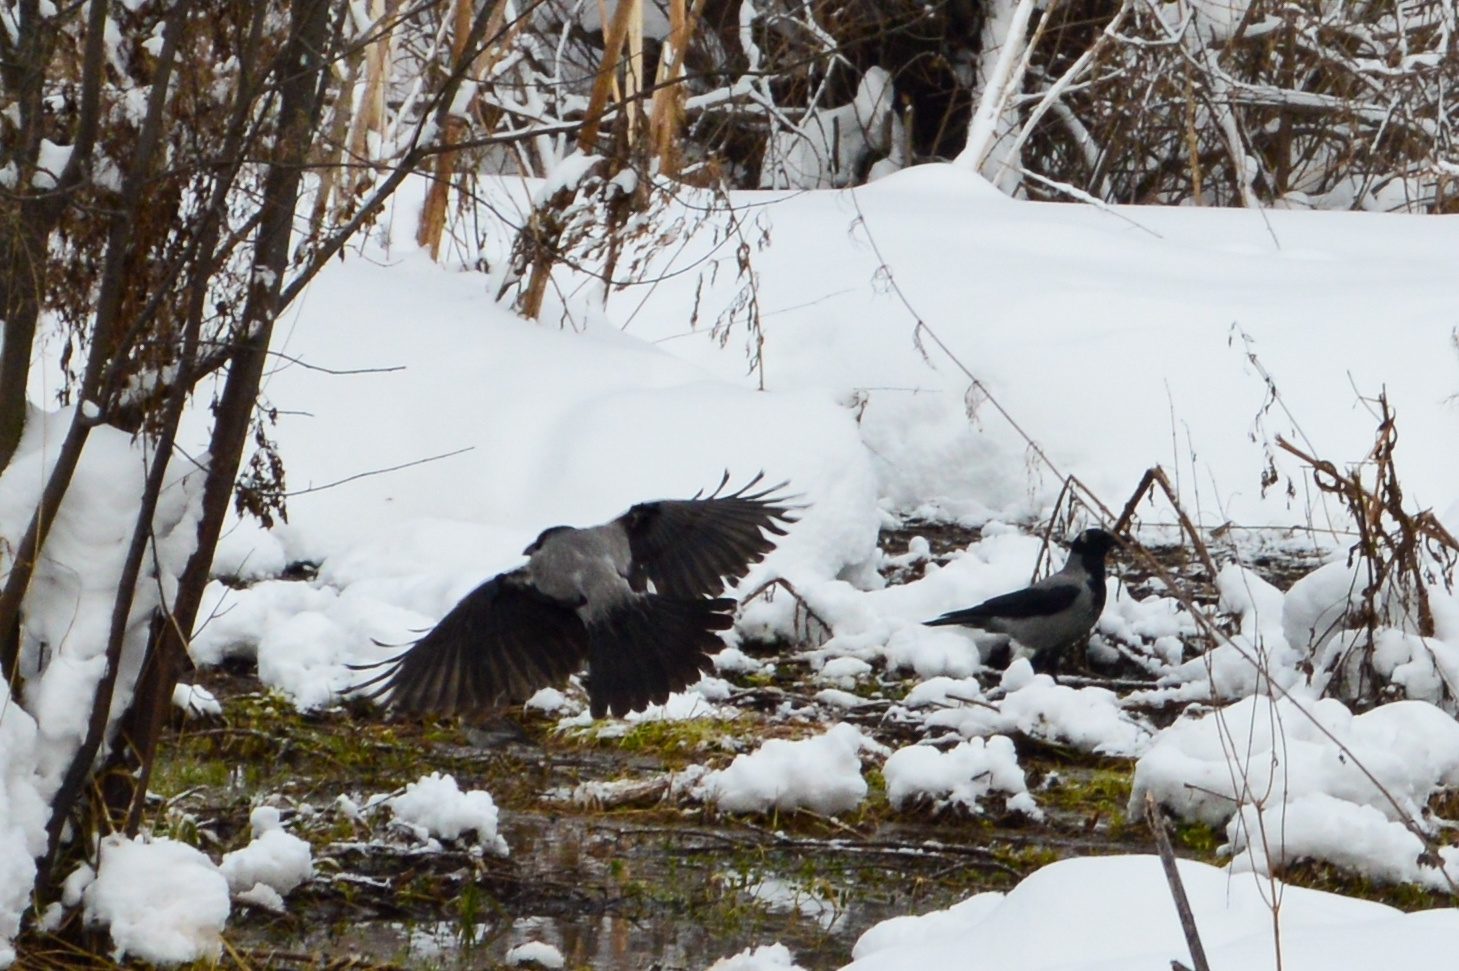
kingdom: Animalia
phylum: Chordata
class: Aves
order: Passeriformes
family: Corvidae
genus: Corvus
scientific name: Corvus cornix
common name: Hooded crow
